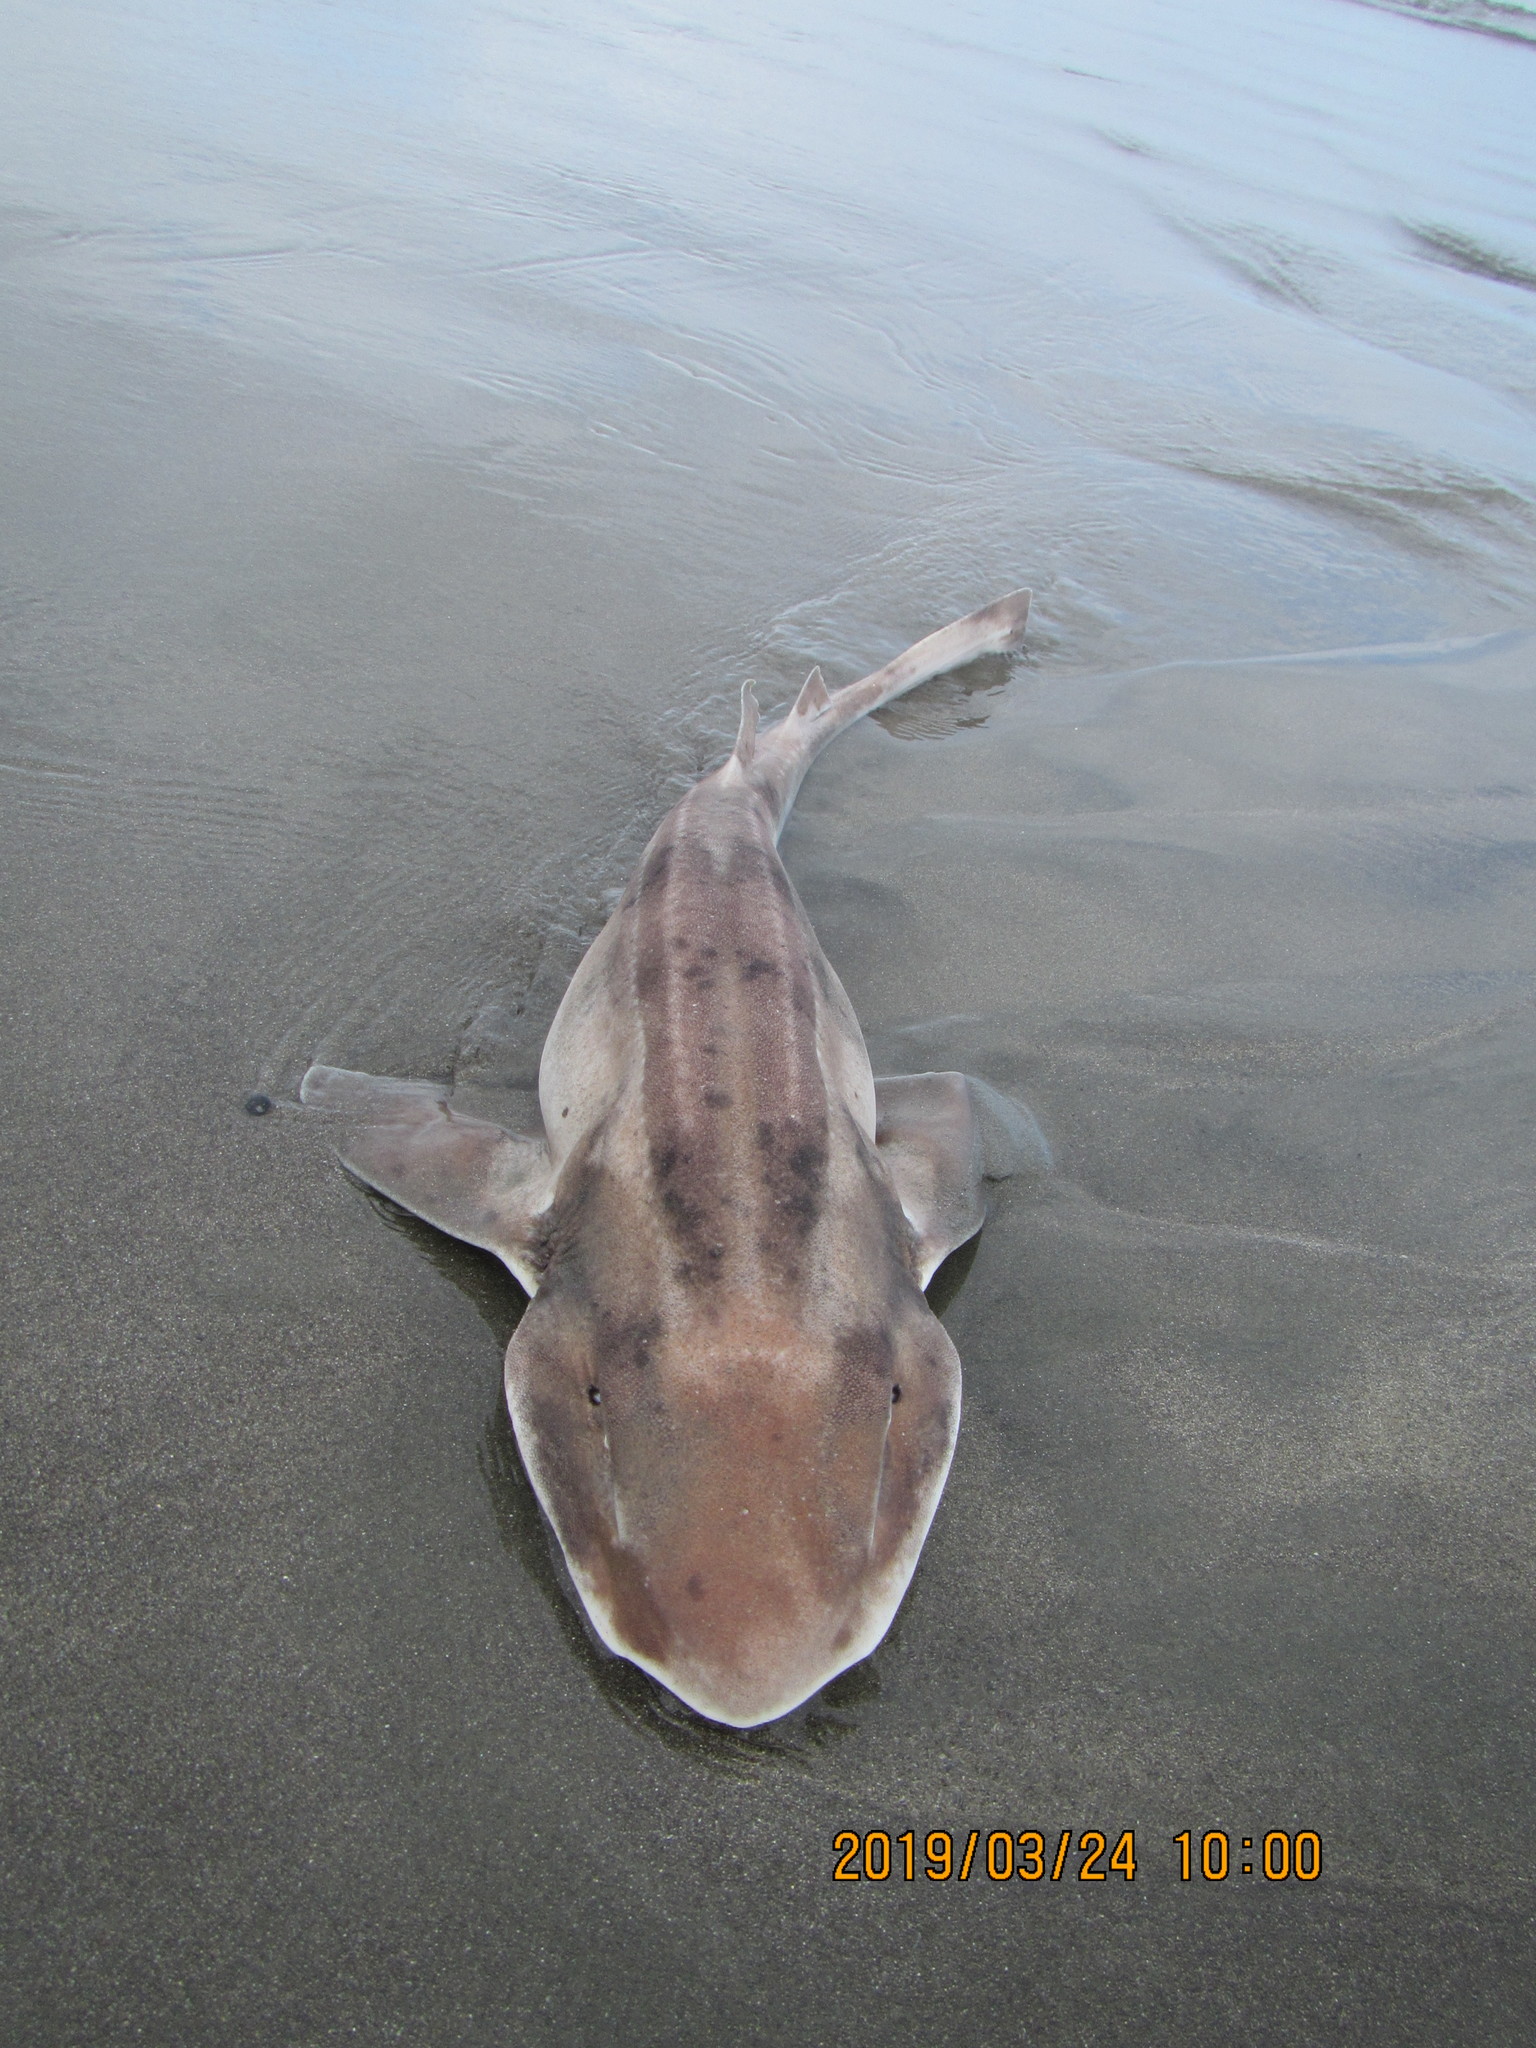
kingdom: Animalia
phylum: Chordata
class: Elasmobranchii
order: Carcharhiniformes
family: Scyliorhinidae
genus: Cephaloscyllium
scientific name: Cephaloscyllium isabellum
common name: Carpet shark
